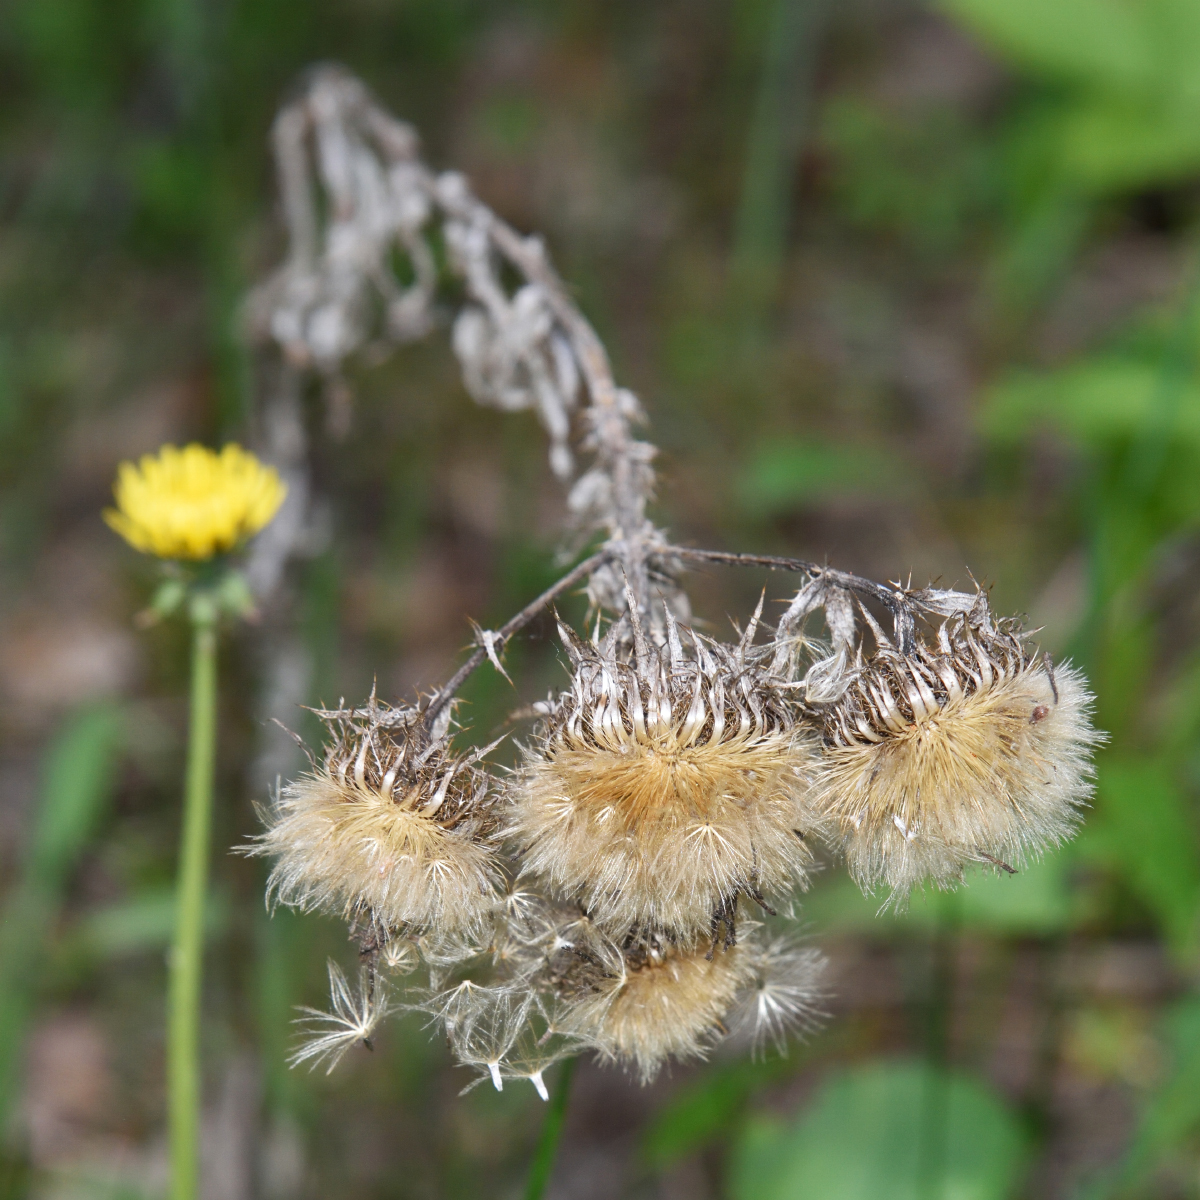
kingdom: Plantae
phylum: Tracheophyta
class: Magnoliopsida
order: Asterales
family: Asteraceae
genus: Carlina
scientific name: Carlina biebersteinii
